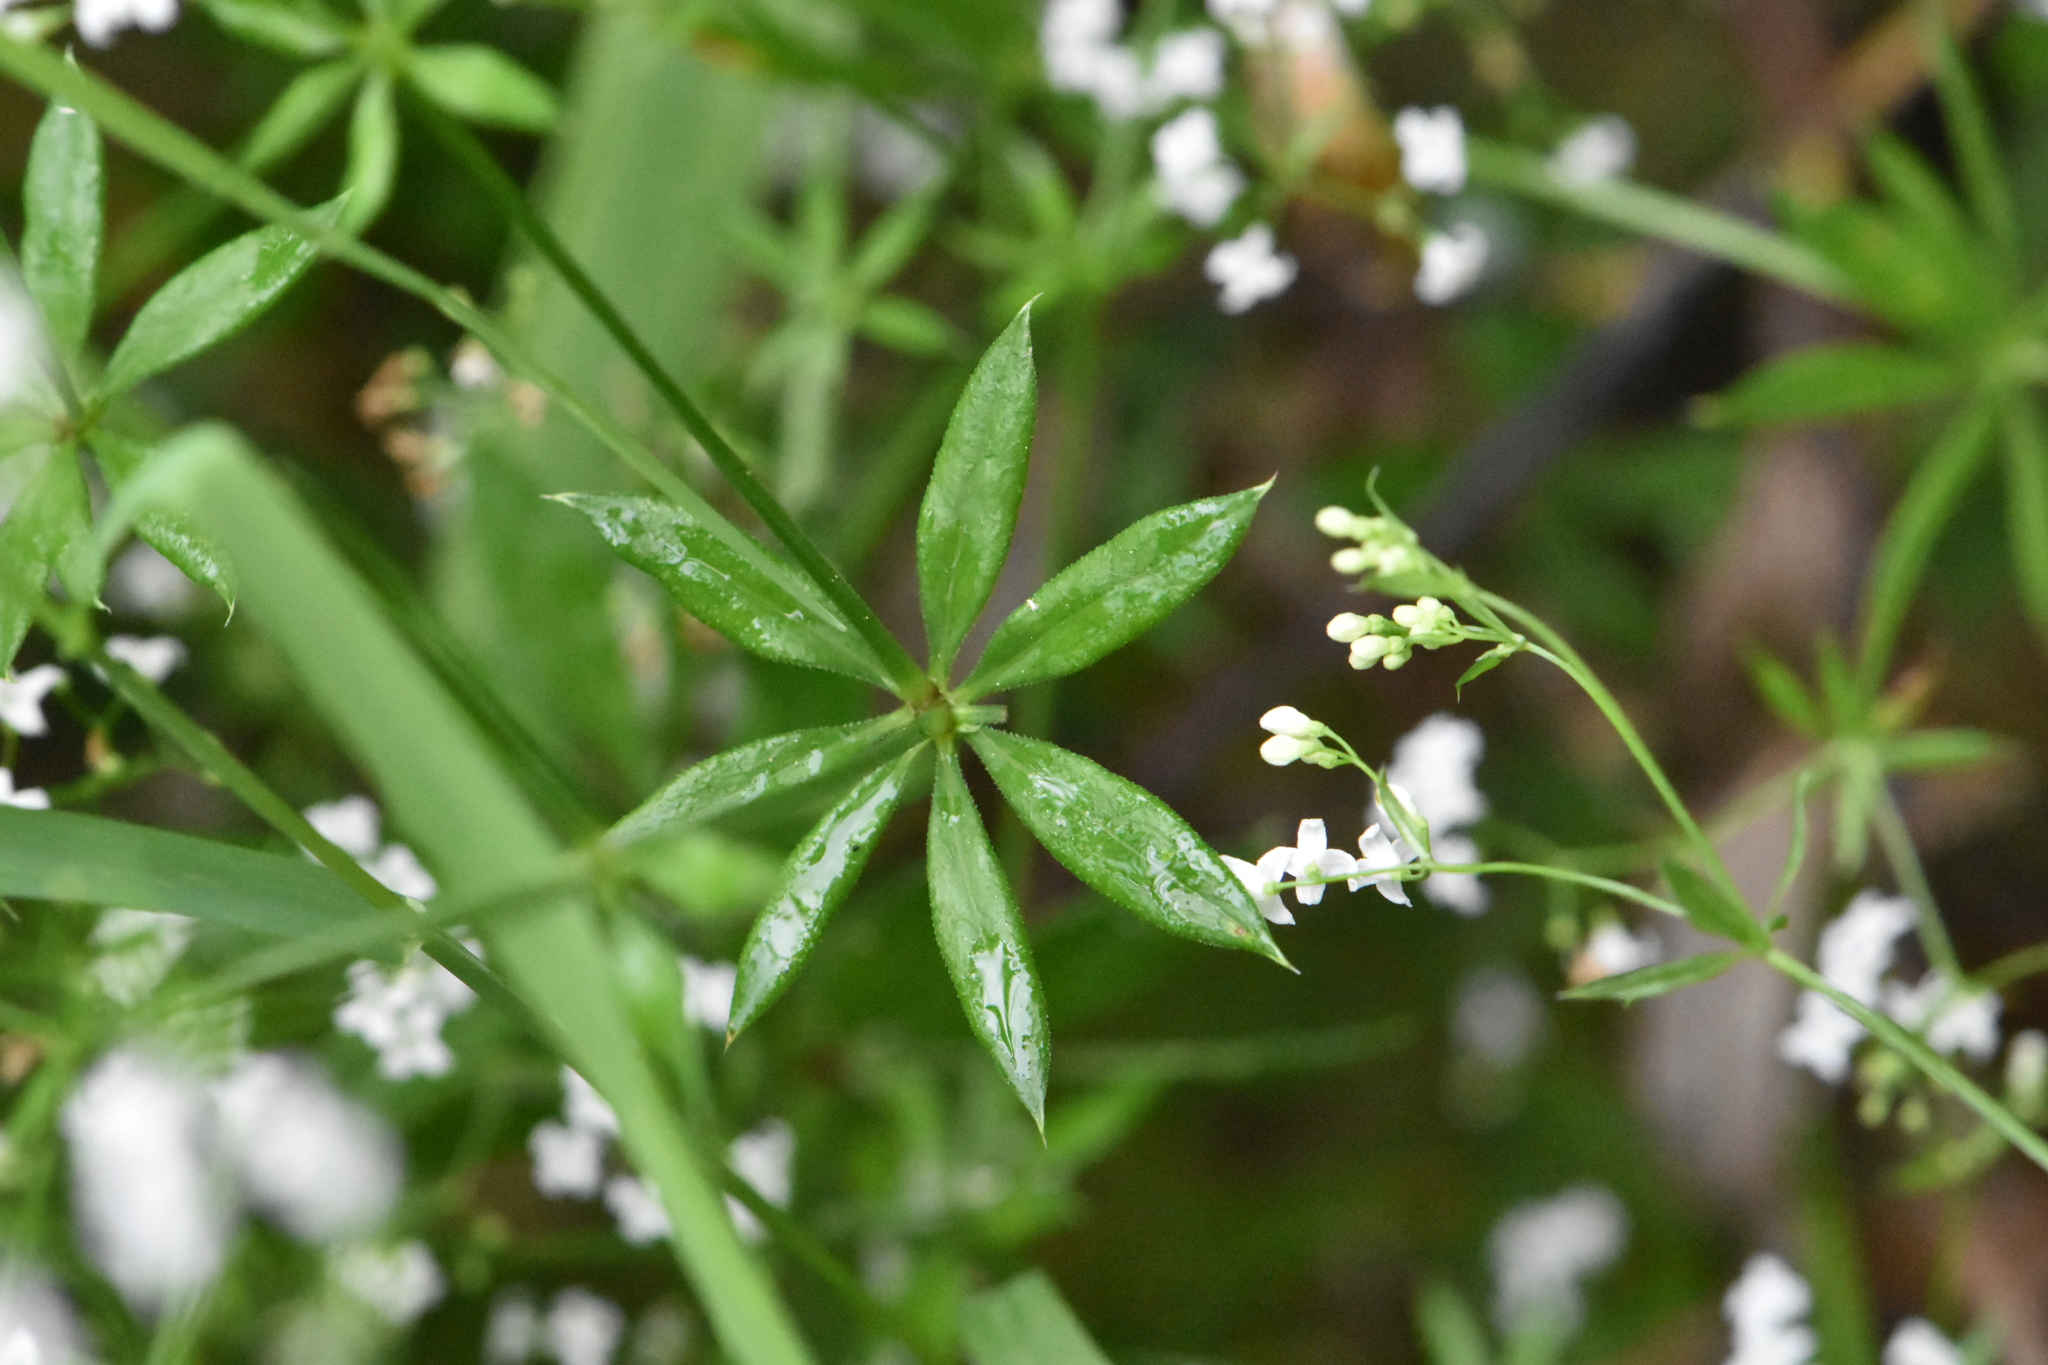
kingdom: Plantae
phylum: Tracheophyta
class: Magnoliopsida
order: Gentianales
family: Rubiaceae
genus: Galium
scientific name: Galium rivale
